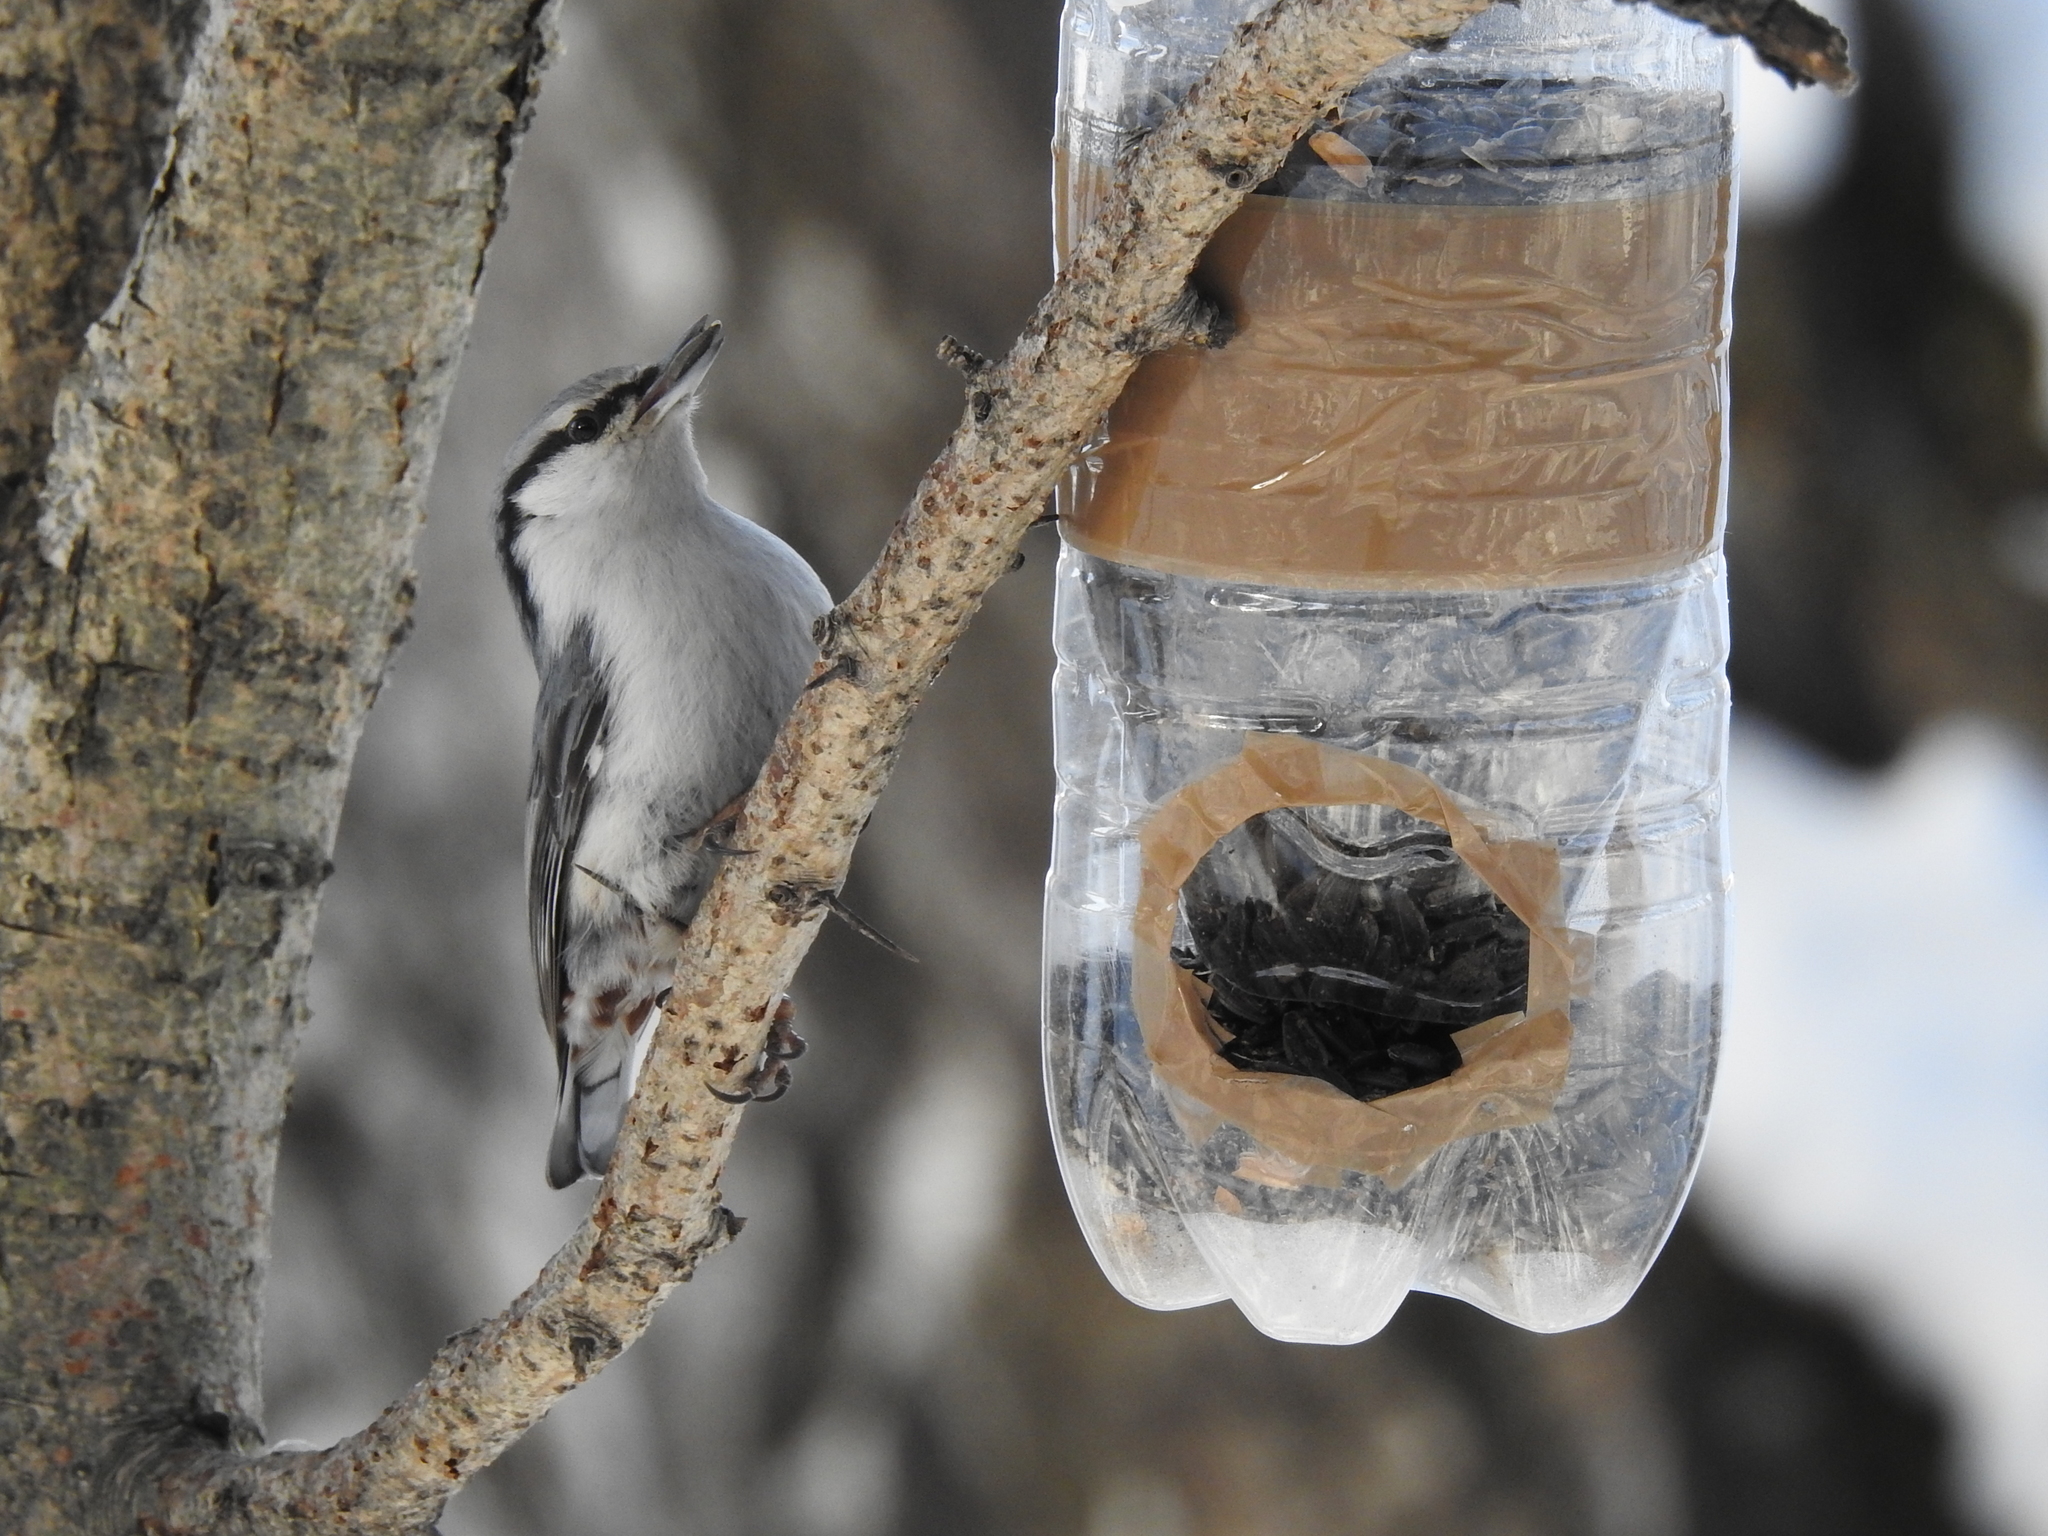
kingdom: Animalia
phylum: Chordata
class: Aves
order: Passeriformes
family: Sittidae
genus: Sitta
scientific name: Sitta europaea
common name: Eurasian nuthatch
